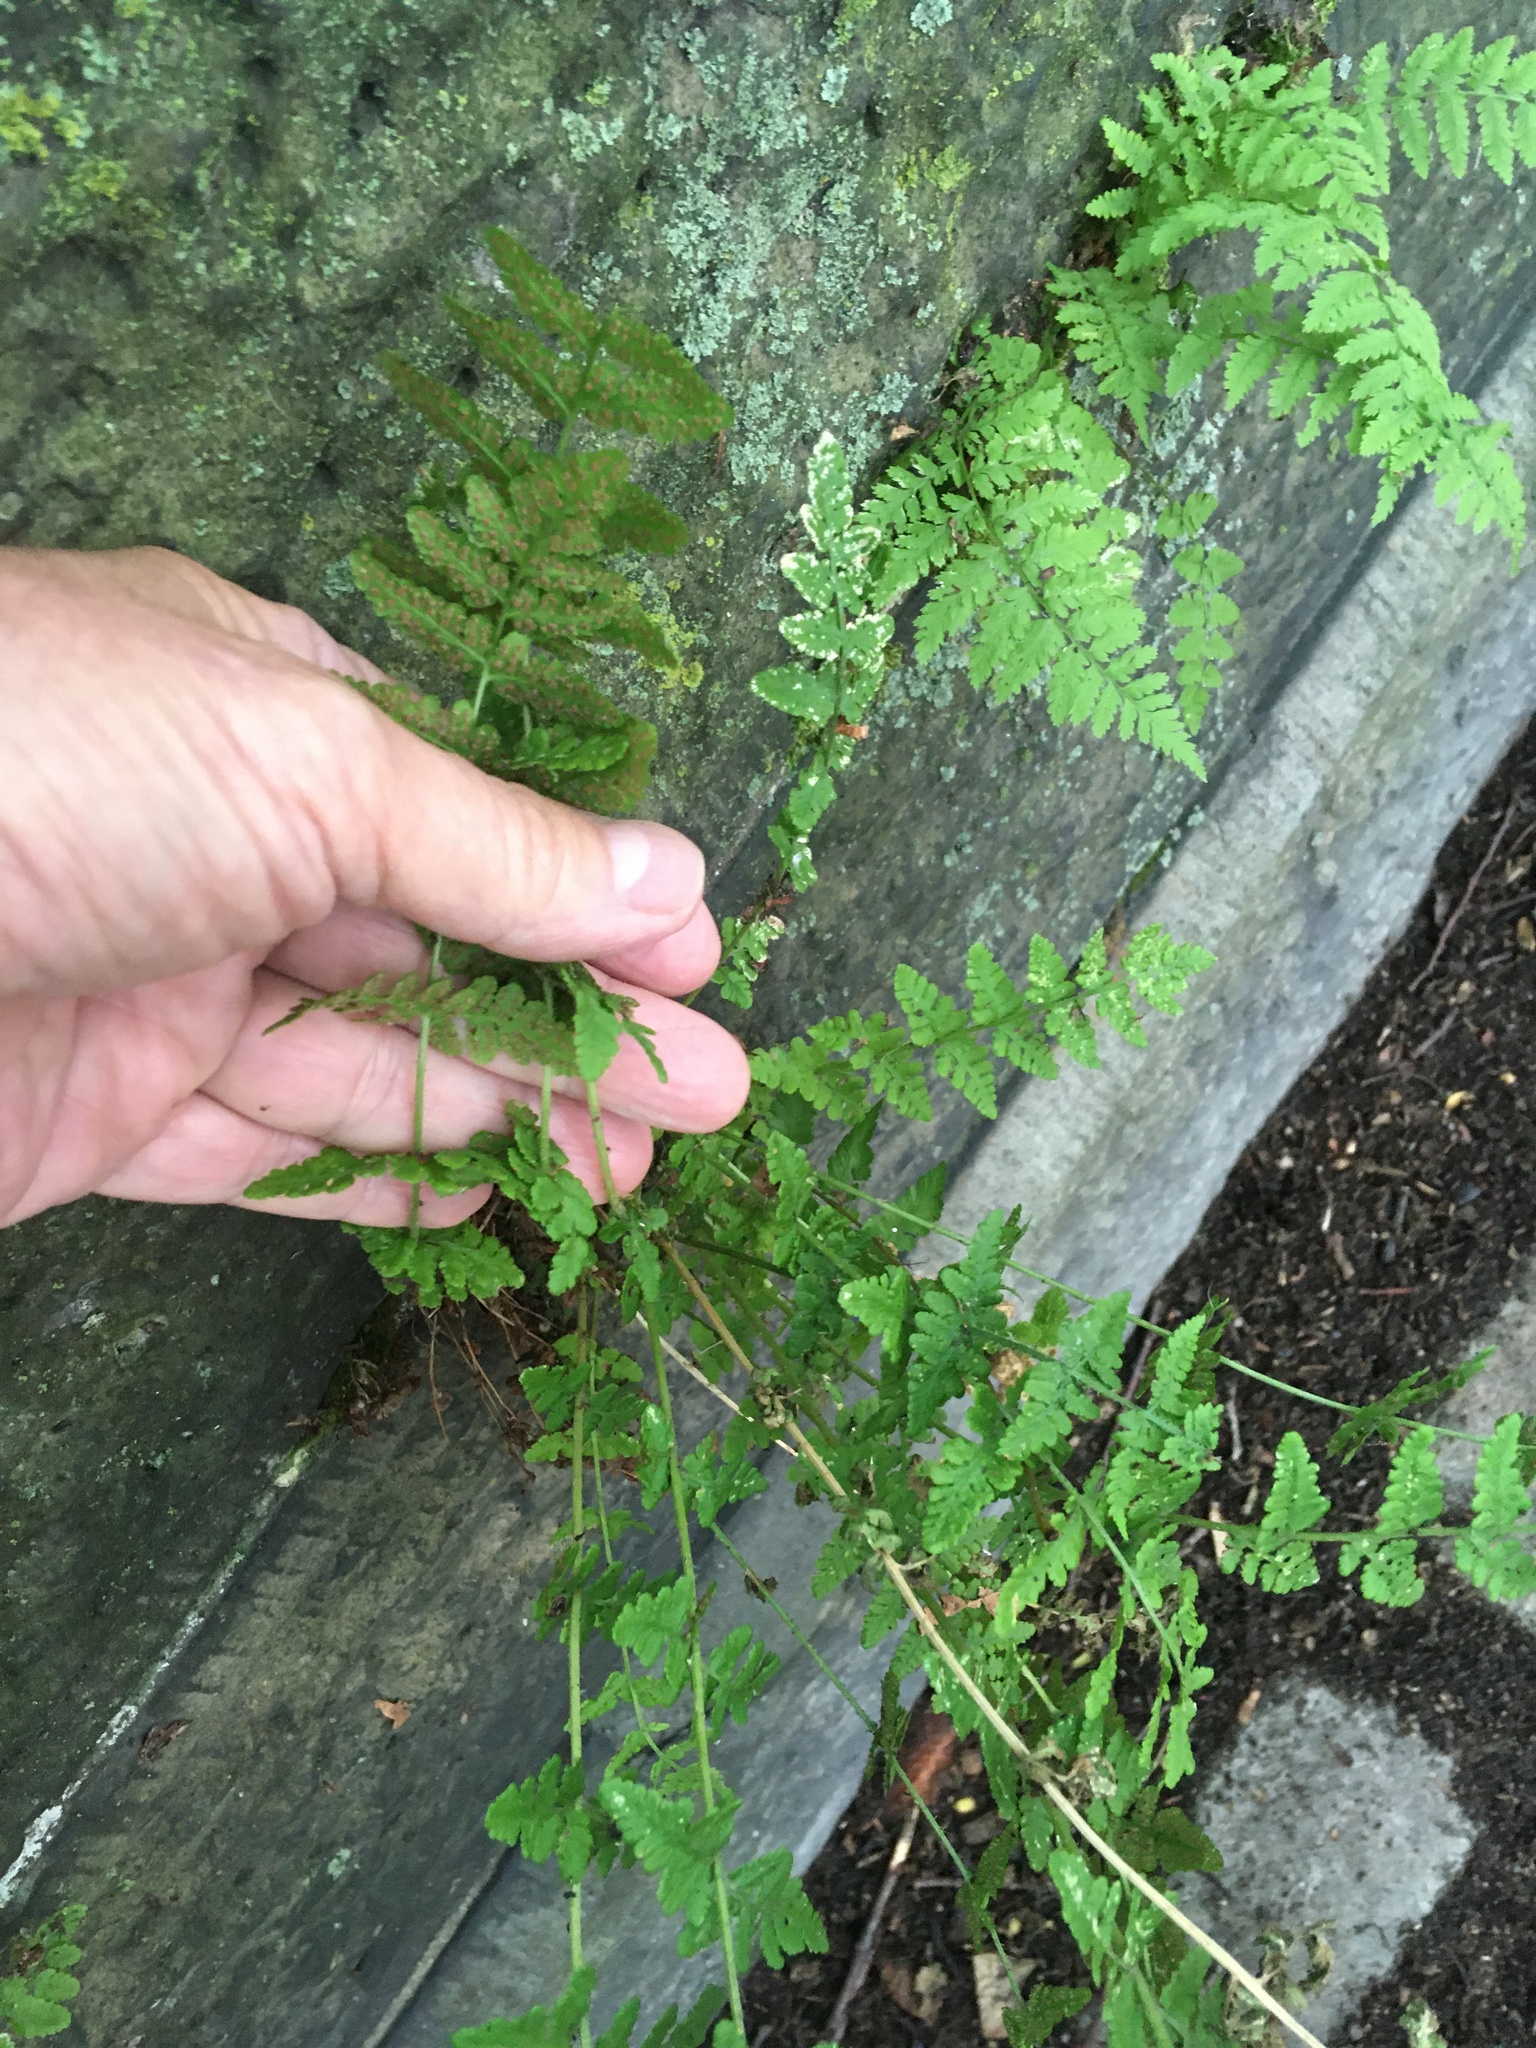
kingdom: Plantae
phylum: Tracheophyta
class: Polypodiopsida
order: Polypodiales
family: Woodsiaceae
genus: Physematium
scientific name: Physematium obtusum
